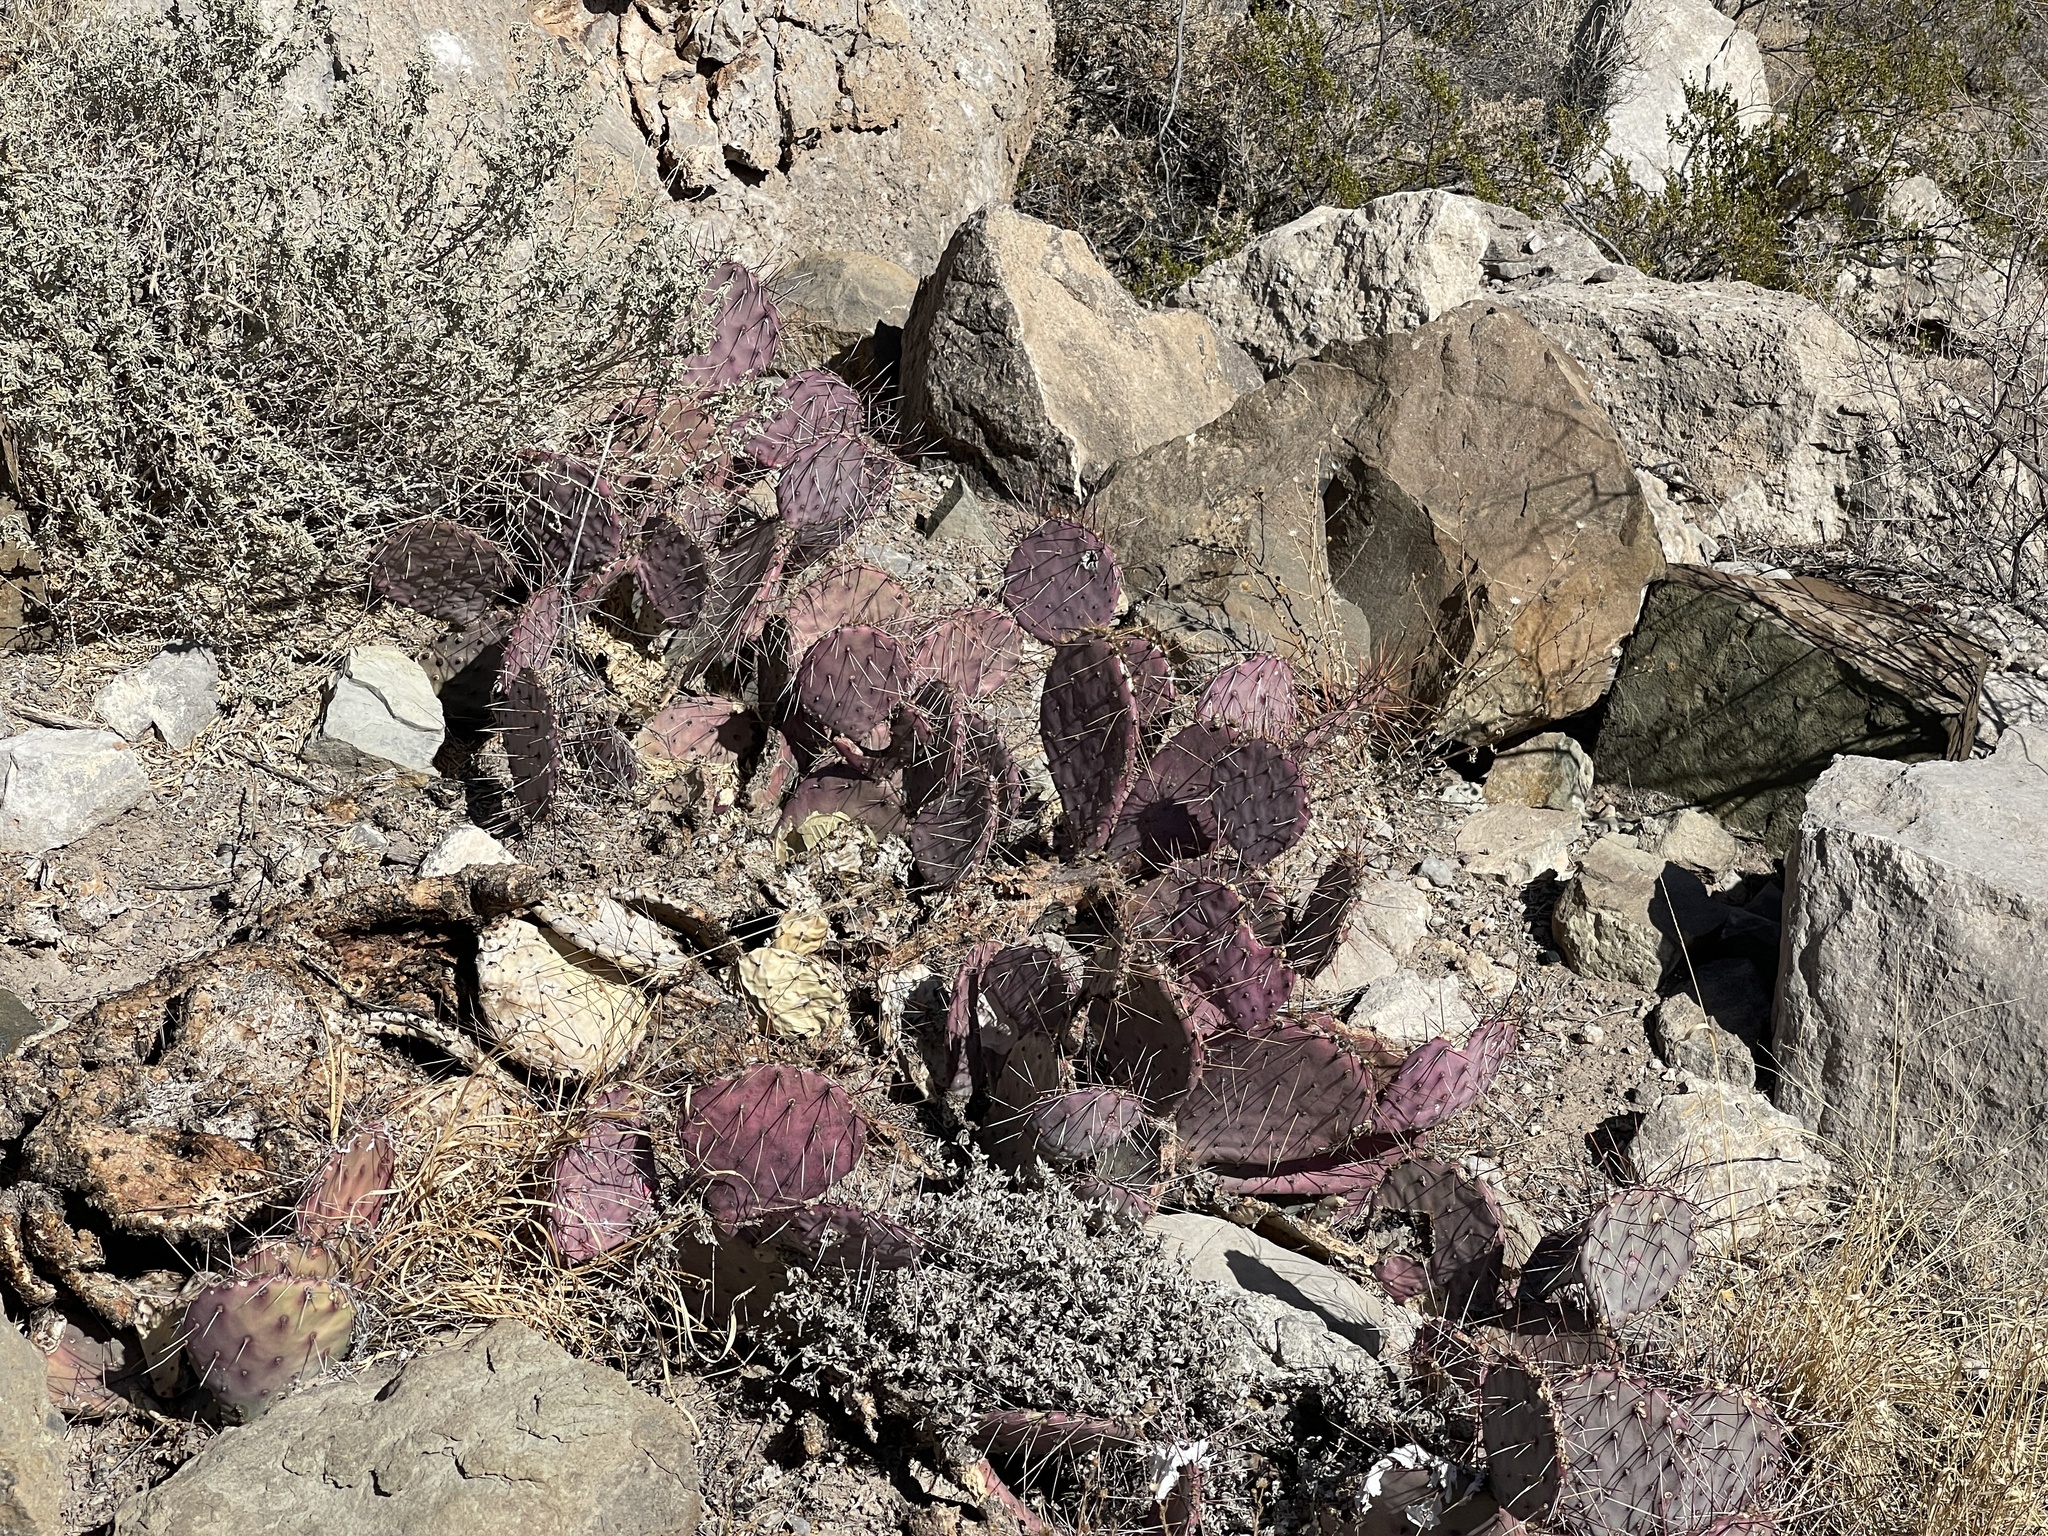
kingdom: Plantae
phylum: Tracheophyta
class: Magnoliopsida
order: Caryophyllales
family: Cactaceae
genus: Opuntia
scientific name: Opuntia macrocentra
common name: Purple prickly-pear
